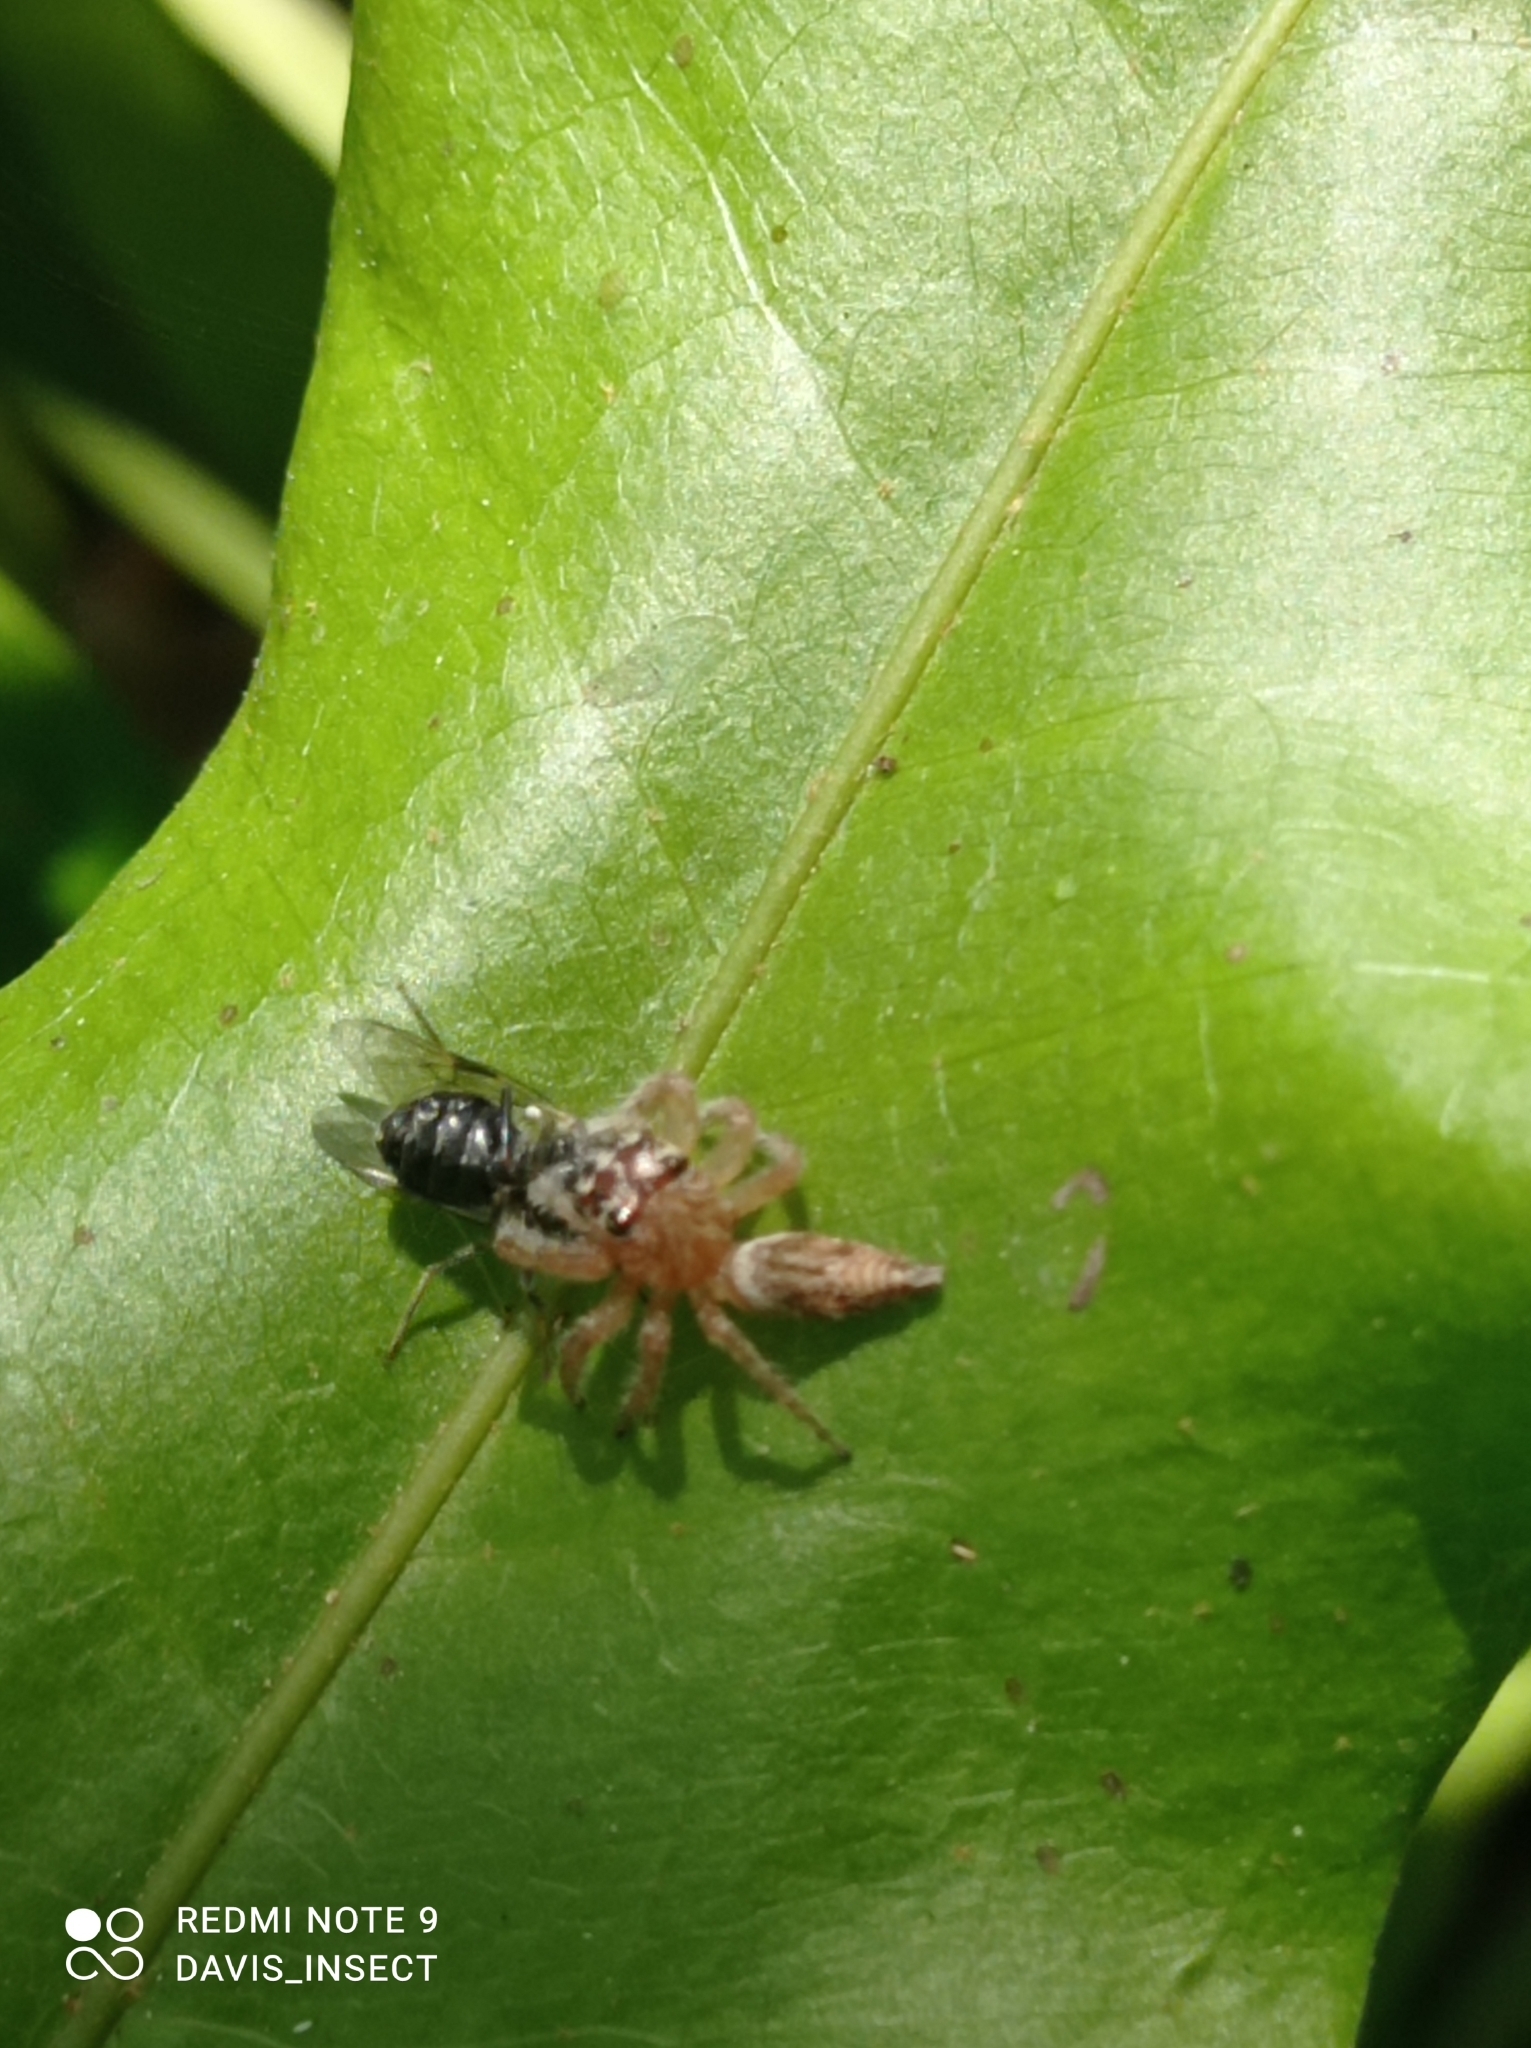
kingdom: Animalia
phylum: Arthropoda
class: Arachnida
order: Araneae
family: Salticidae
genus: Artabrus
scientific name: Artabrus aurantipilosus
